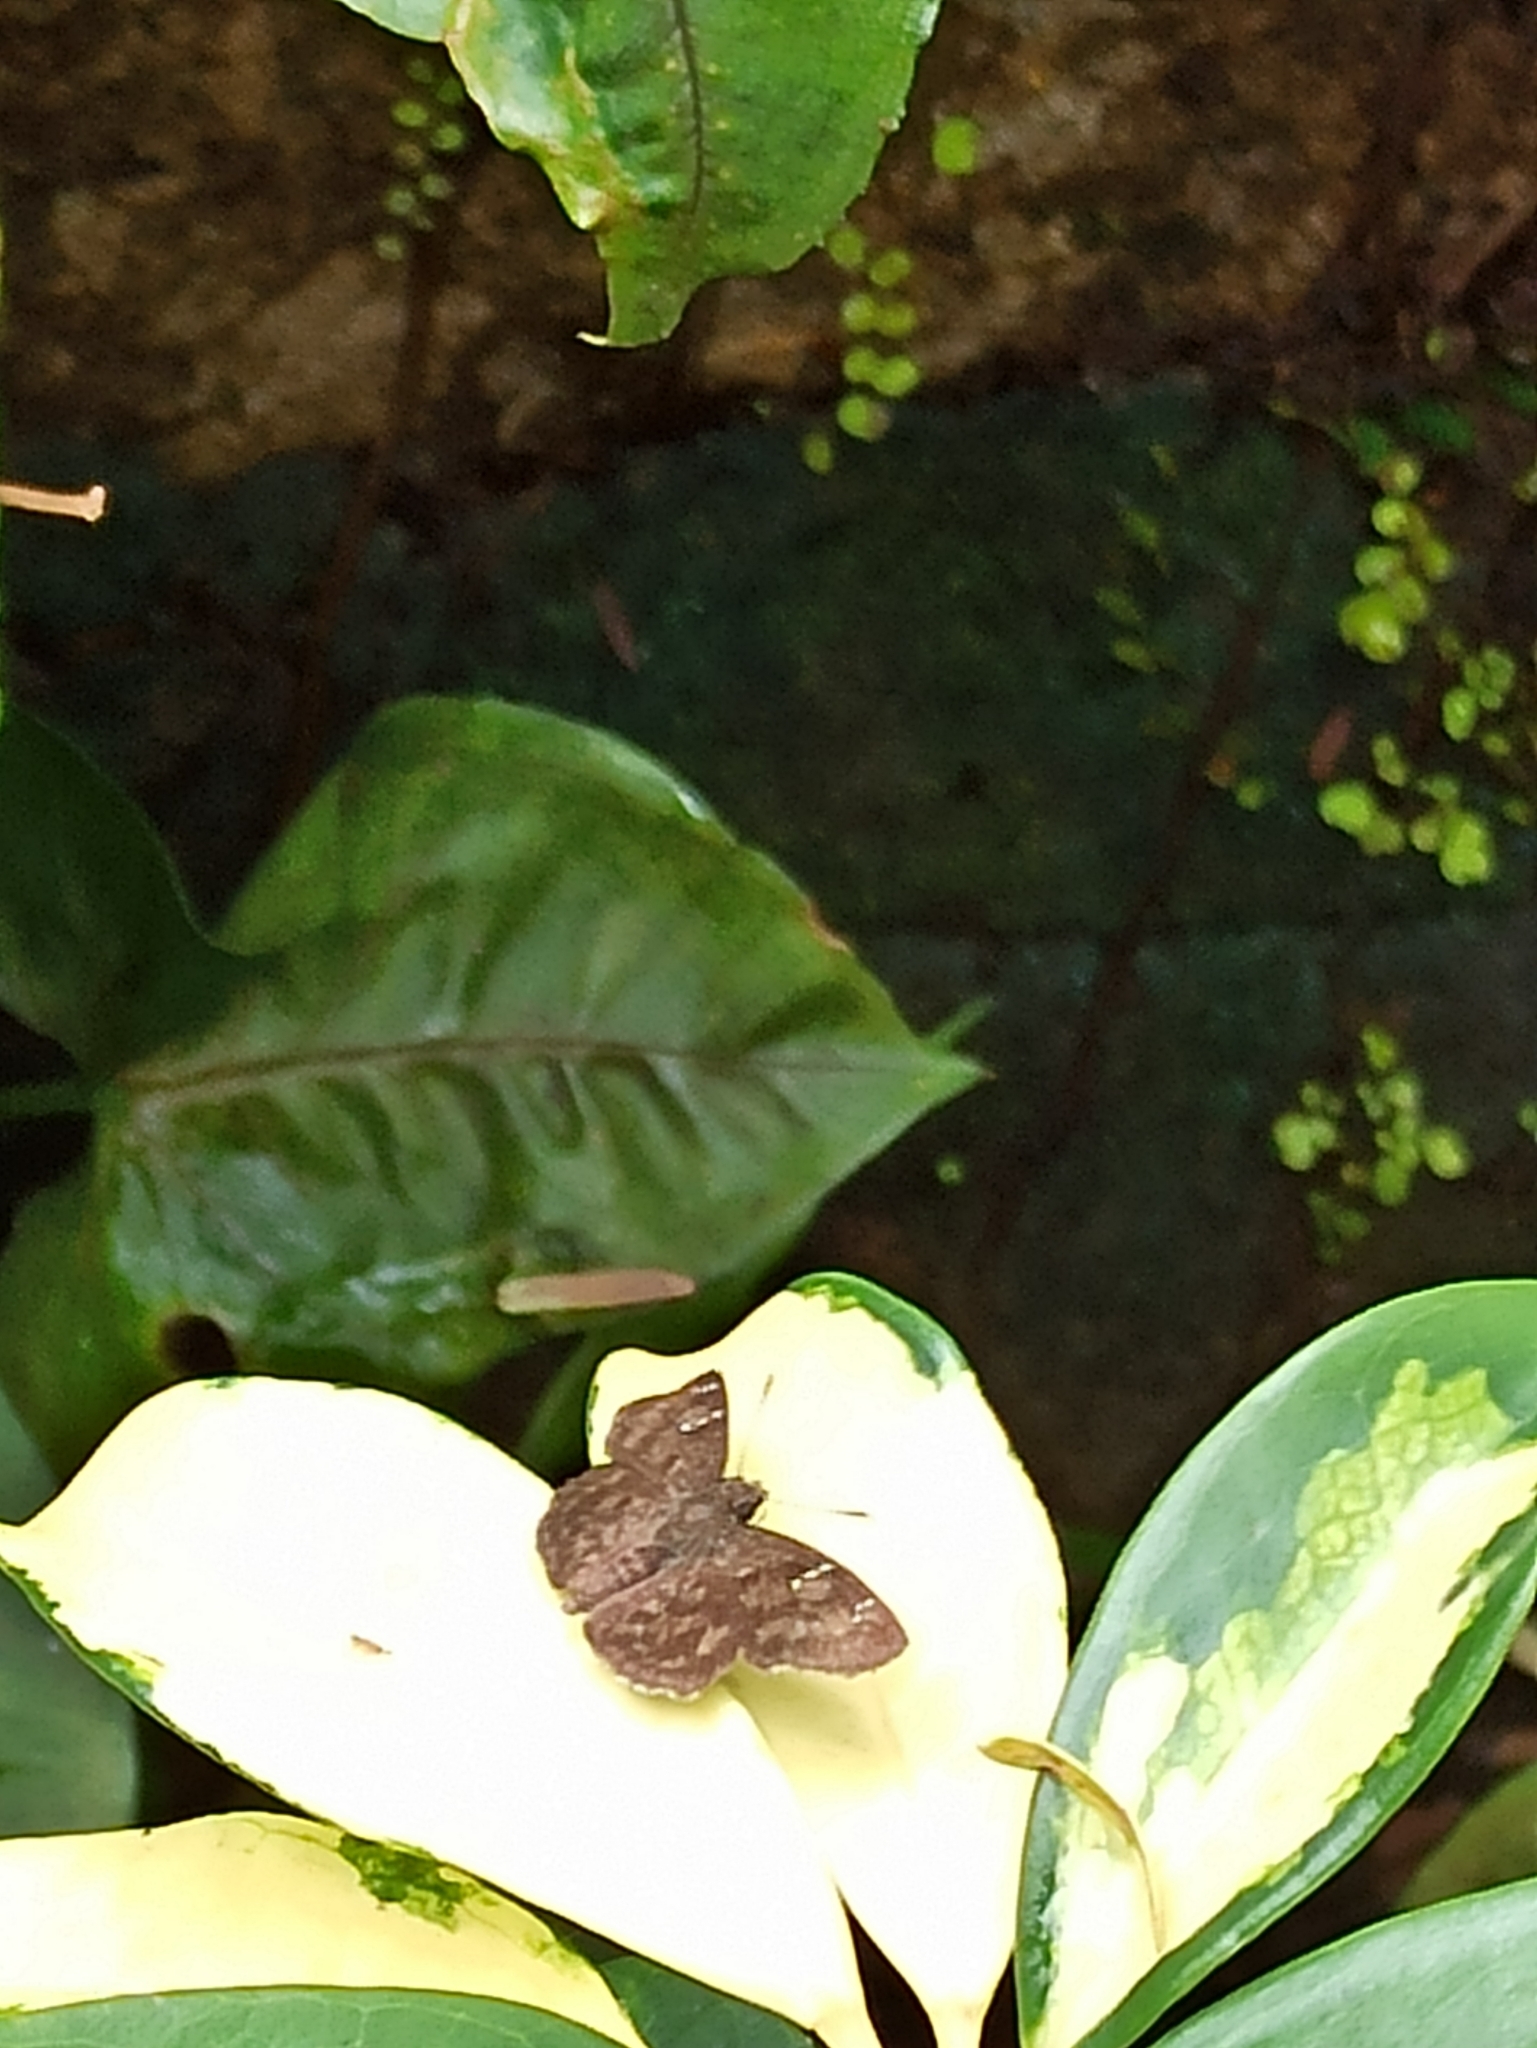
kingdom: Animalia
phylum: Arthropoda
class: Insecta
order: Lepidoptera
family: Hesperiidae
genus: Sarangesa
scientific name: Sarangesa dasahara
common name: Common small flat
